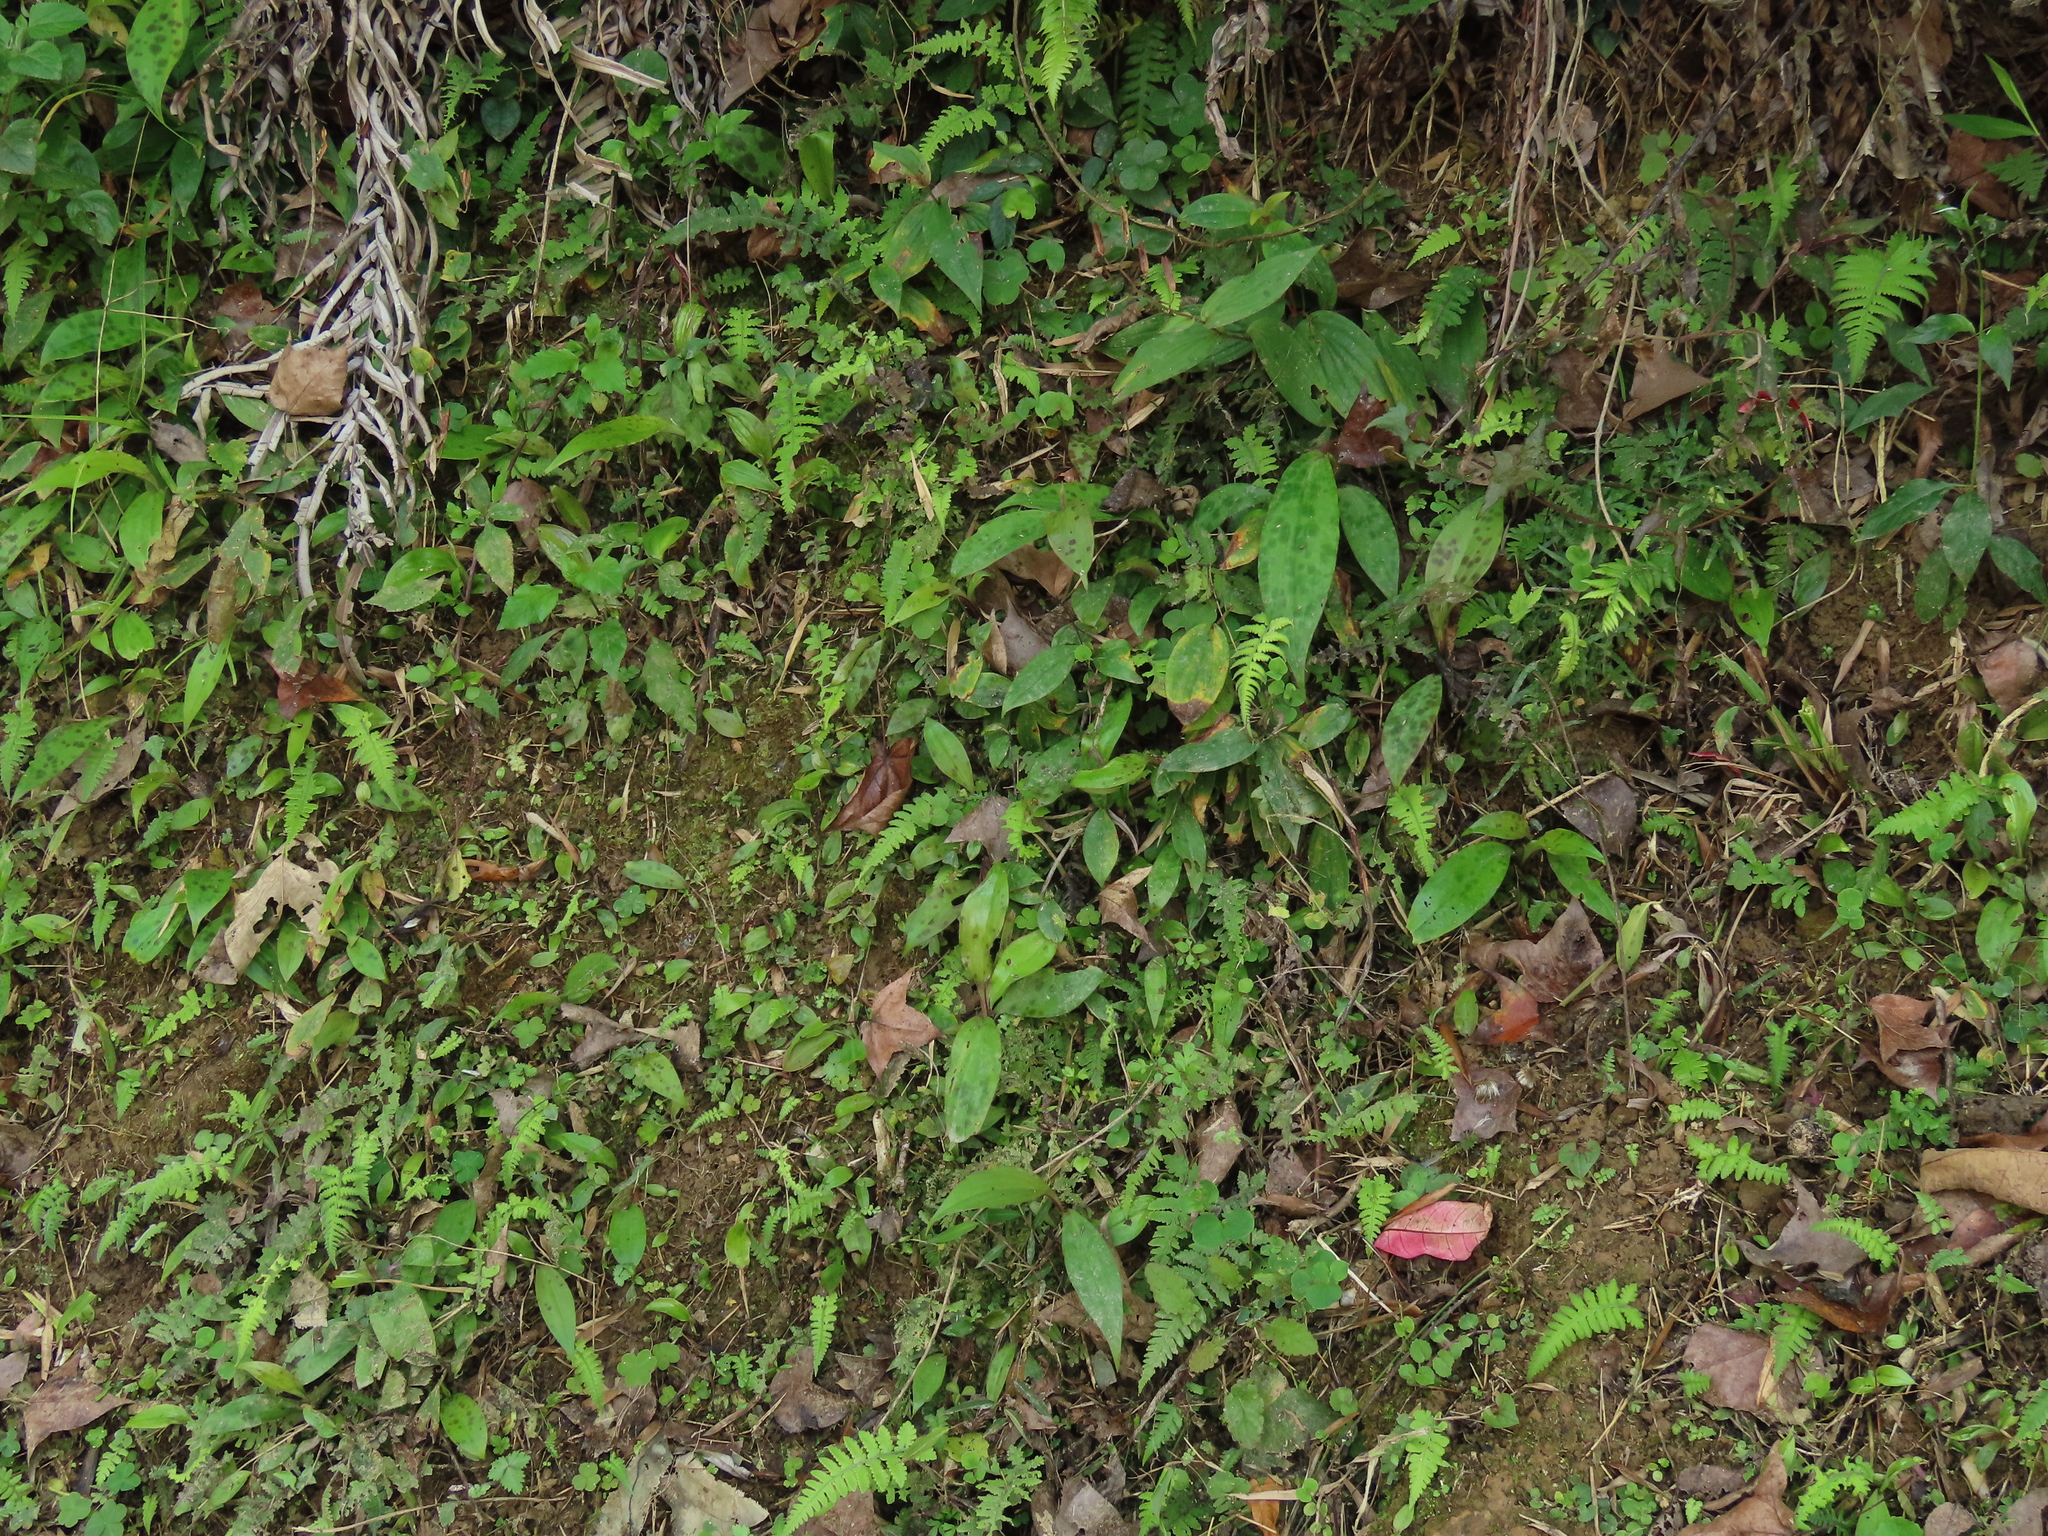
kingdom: Plantae
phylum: Tracheophyta
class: Liliopsida
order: Liliales
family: Liliaceae
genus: Tricyrtis
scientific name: Tricyrtis formosana
